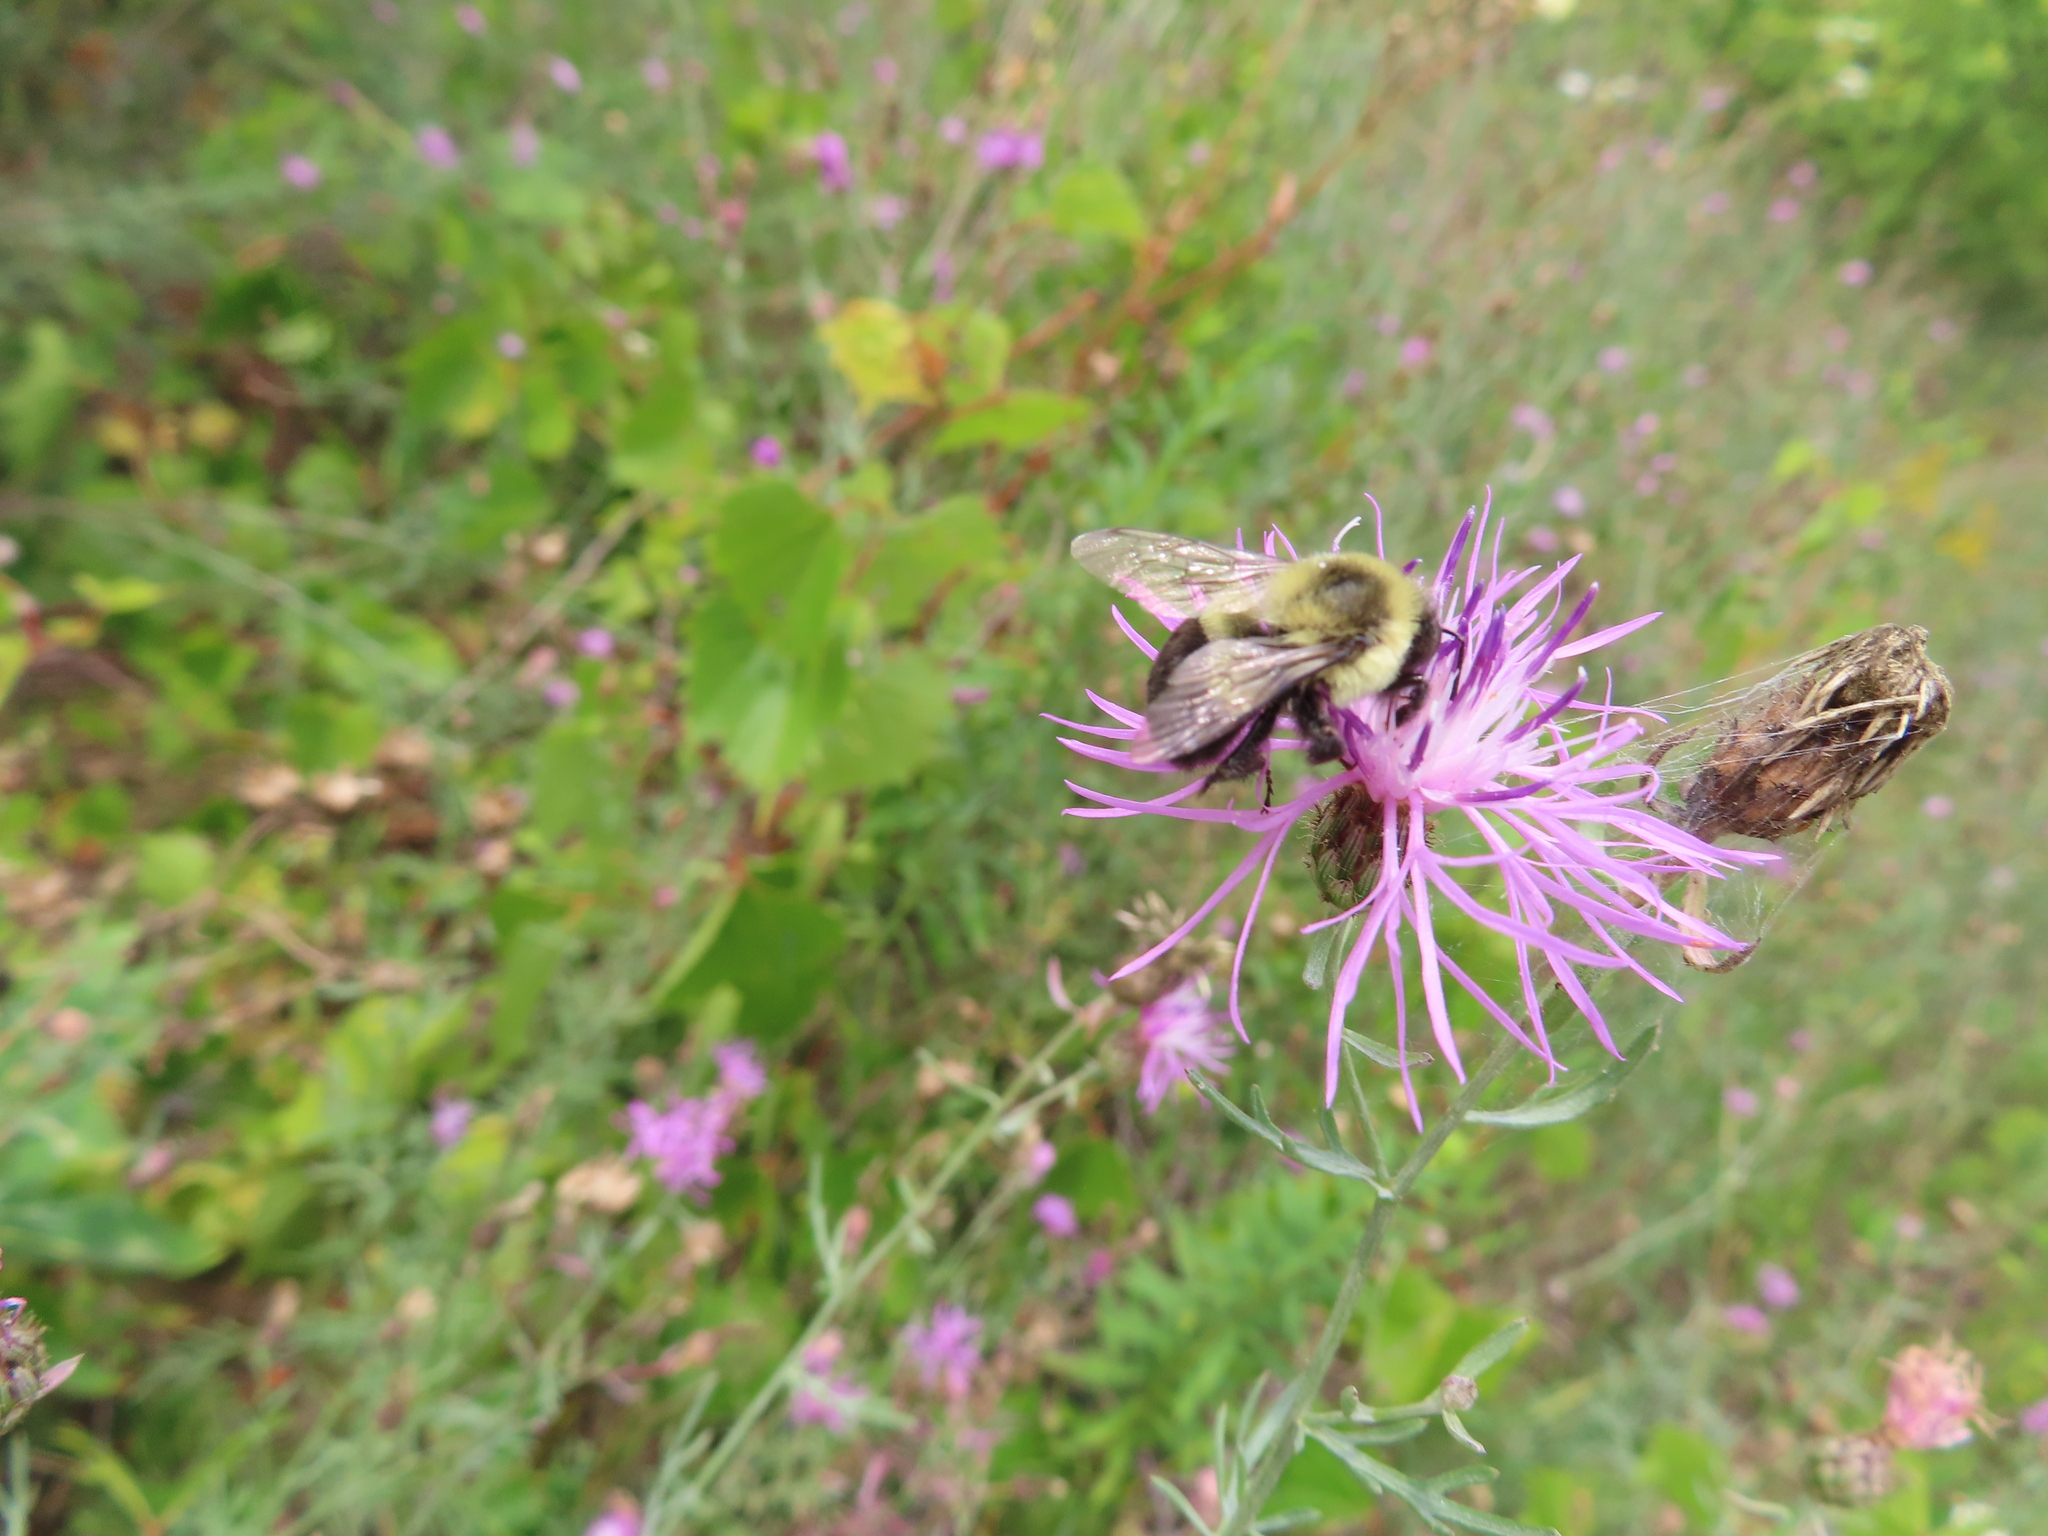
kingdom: Animalia
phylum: Arthropoda
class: Insecta
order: Hymenoptera
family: Apidae
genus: Bombus
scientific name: Bombus impatiens
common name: Common eastern bumble bee
